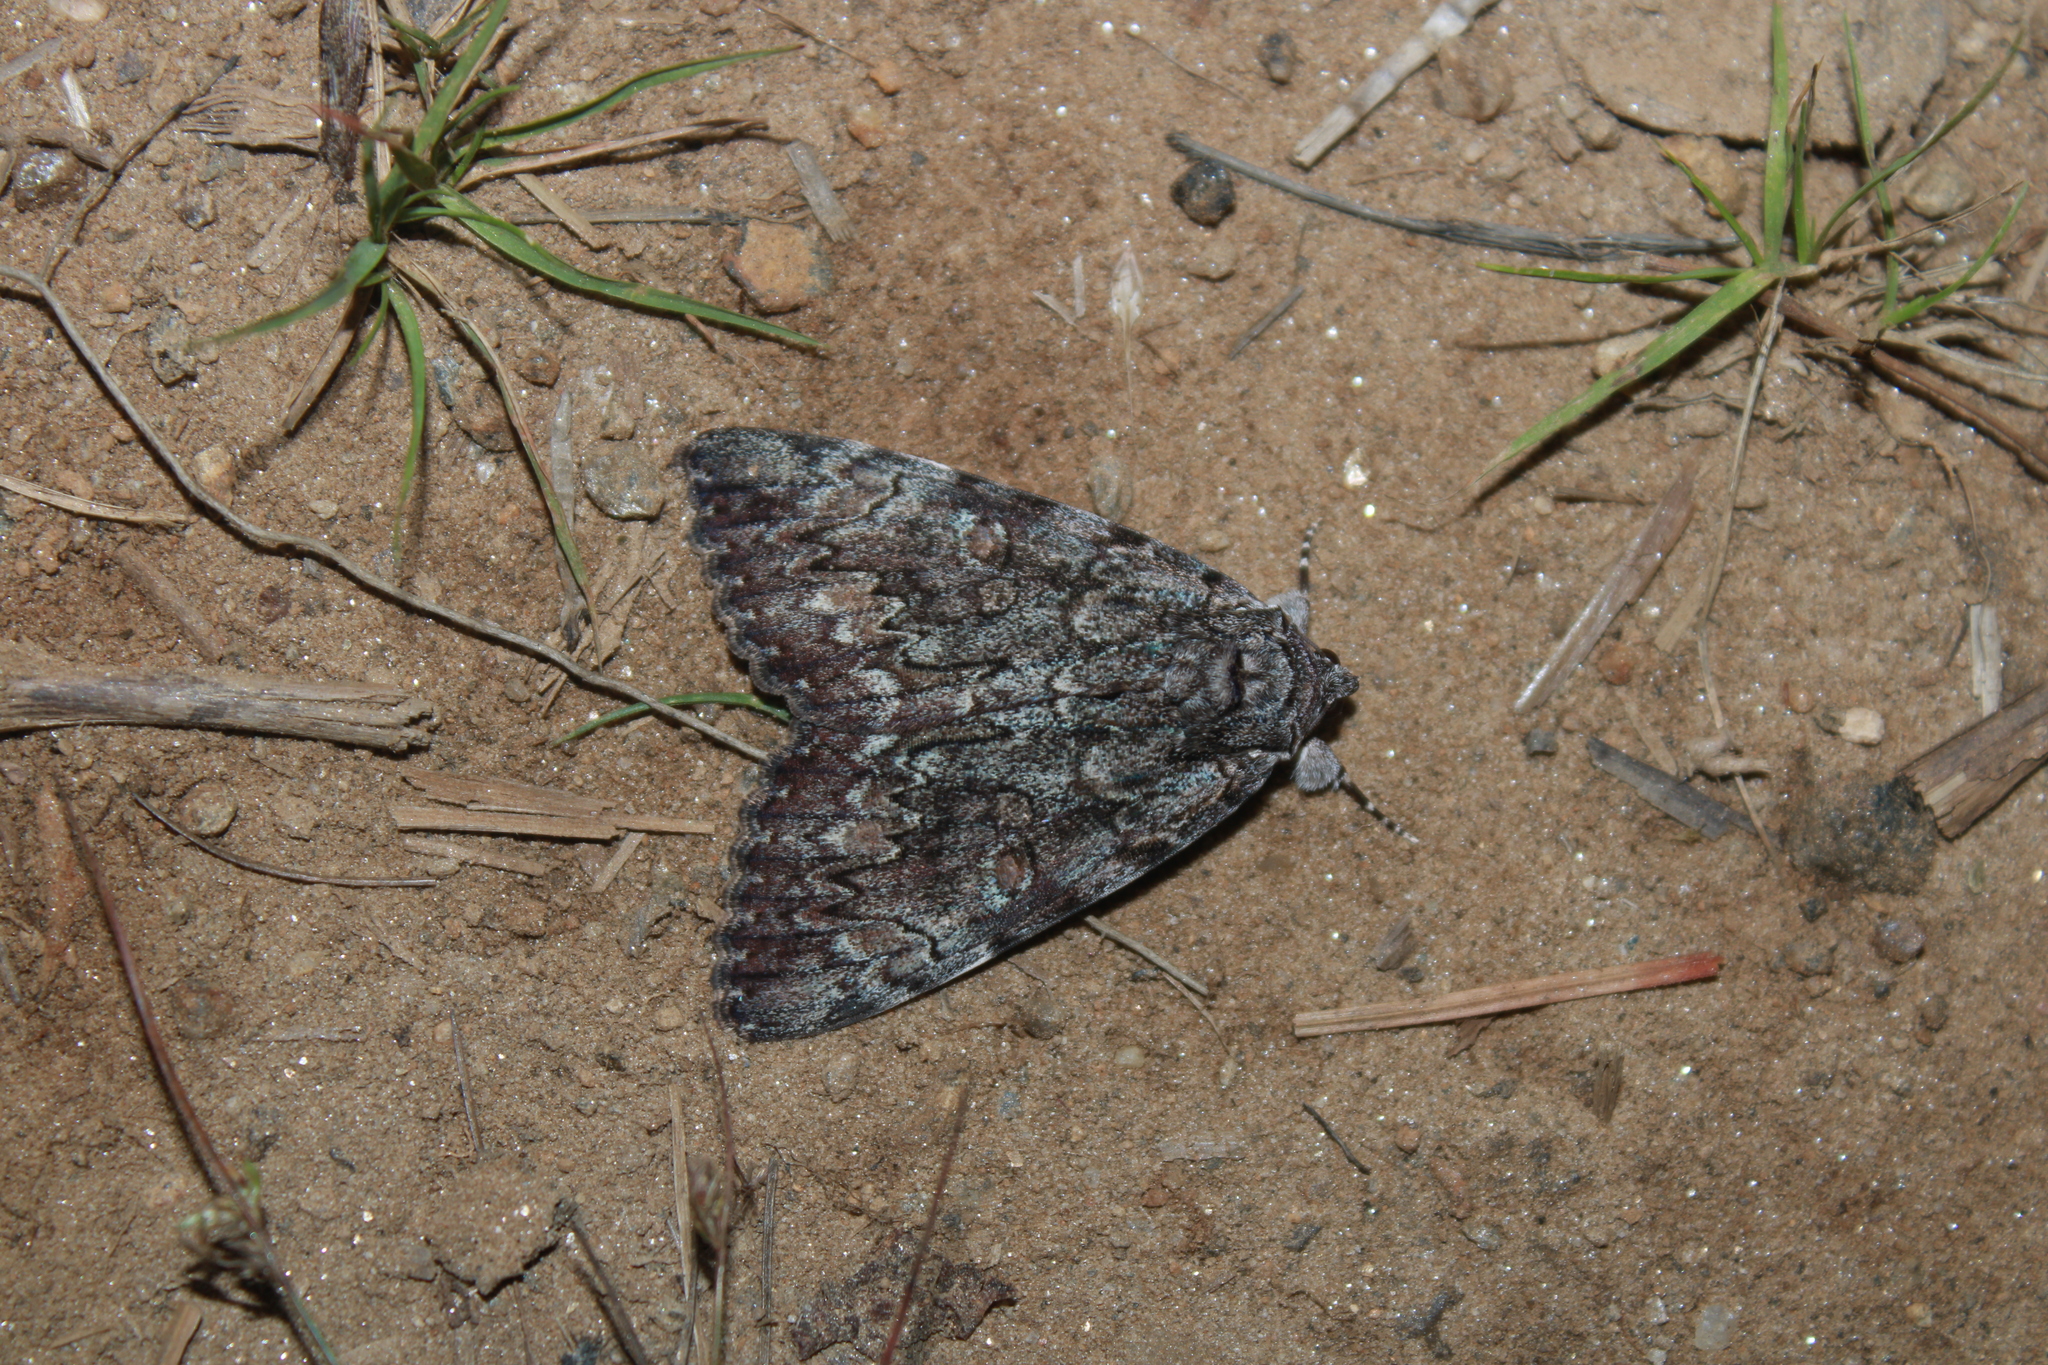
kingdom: Animalia
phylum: Arthropoda
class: Insecta
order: Lepidoptera
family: Erebidae
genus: Catocala
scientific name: Catocala palaeogama
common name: Oldwife underwing
